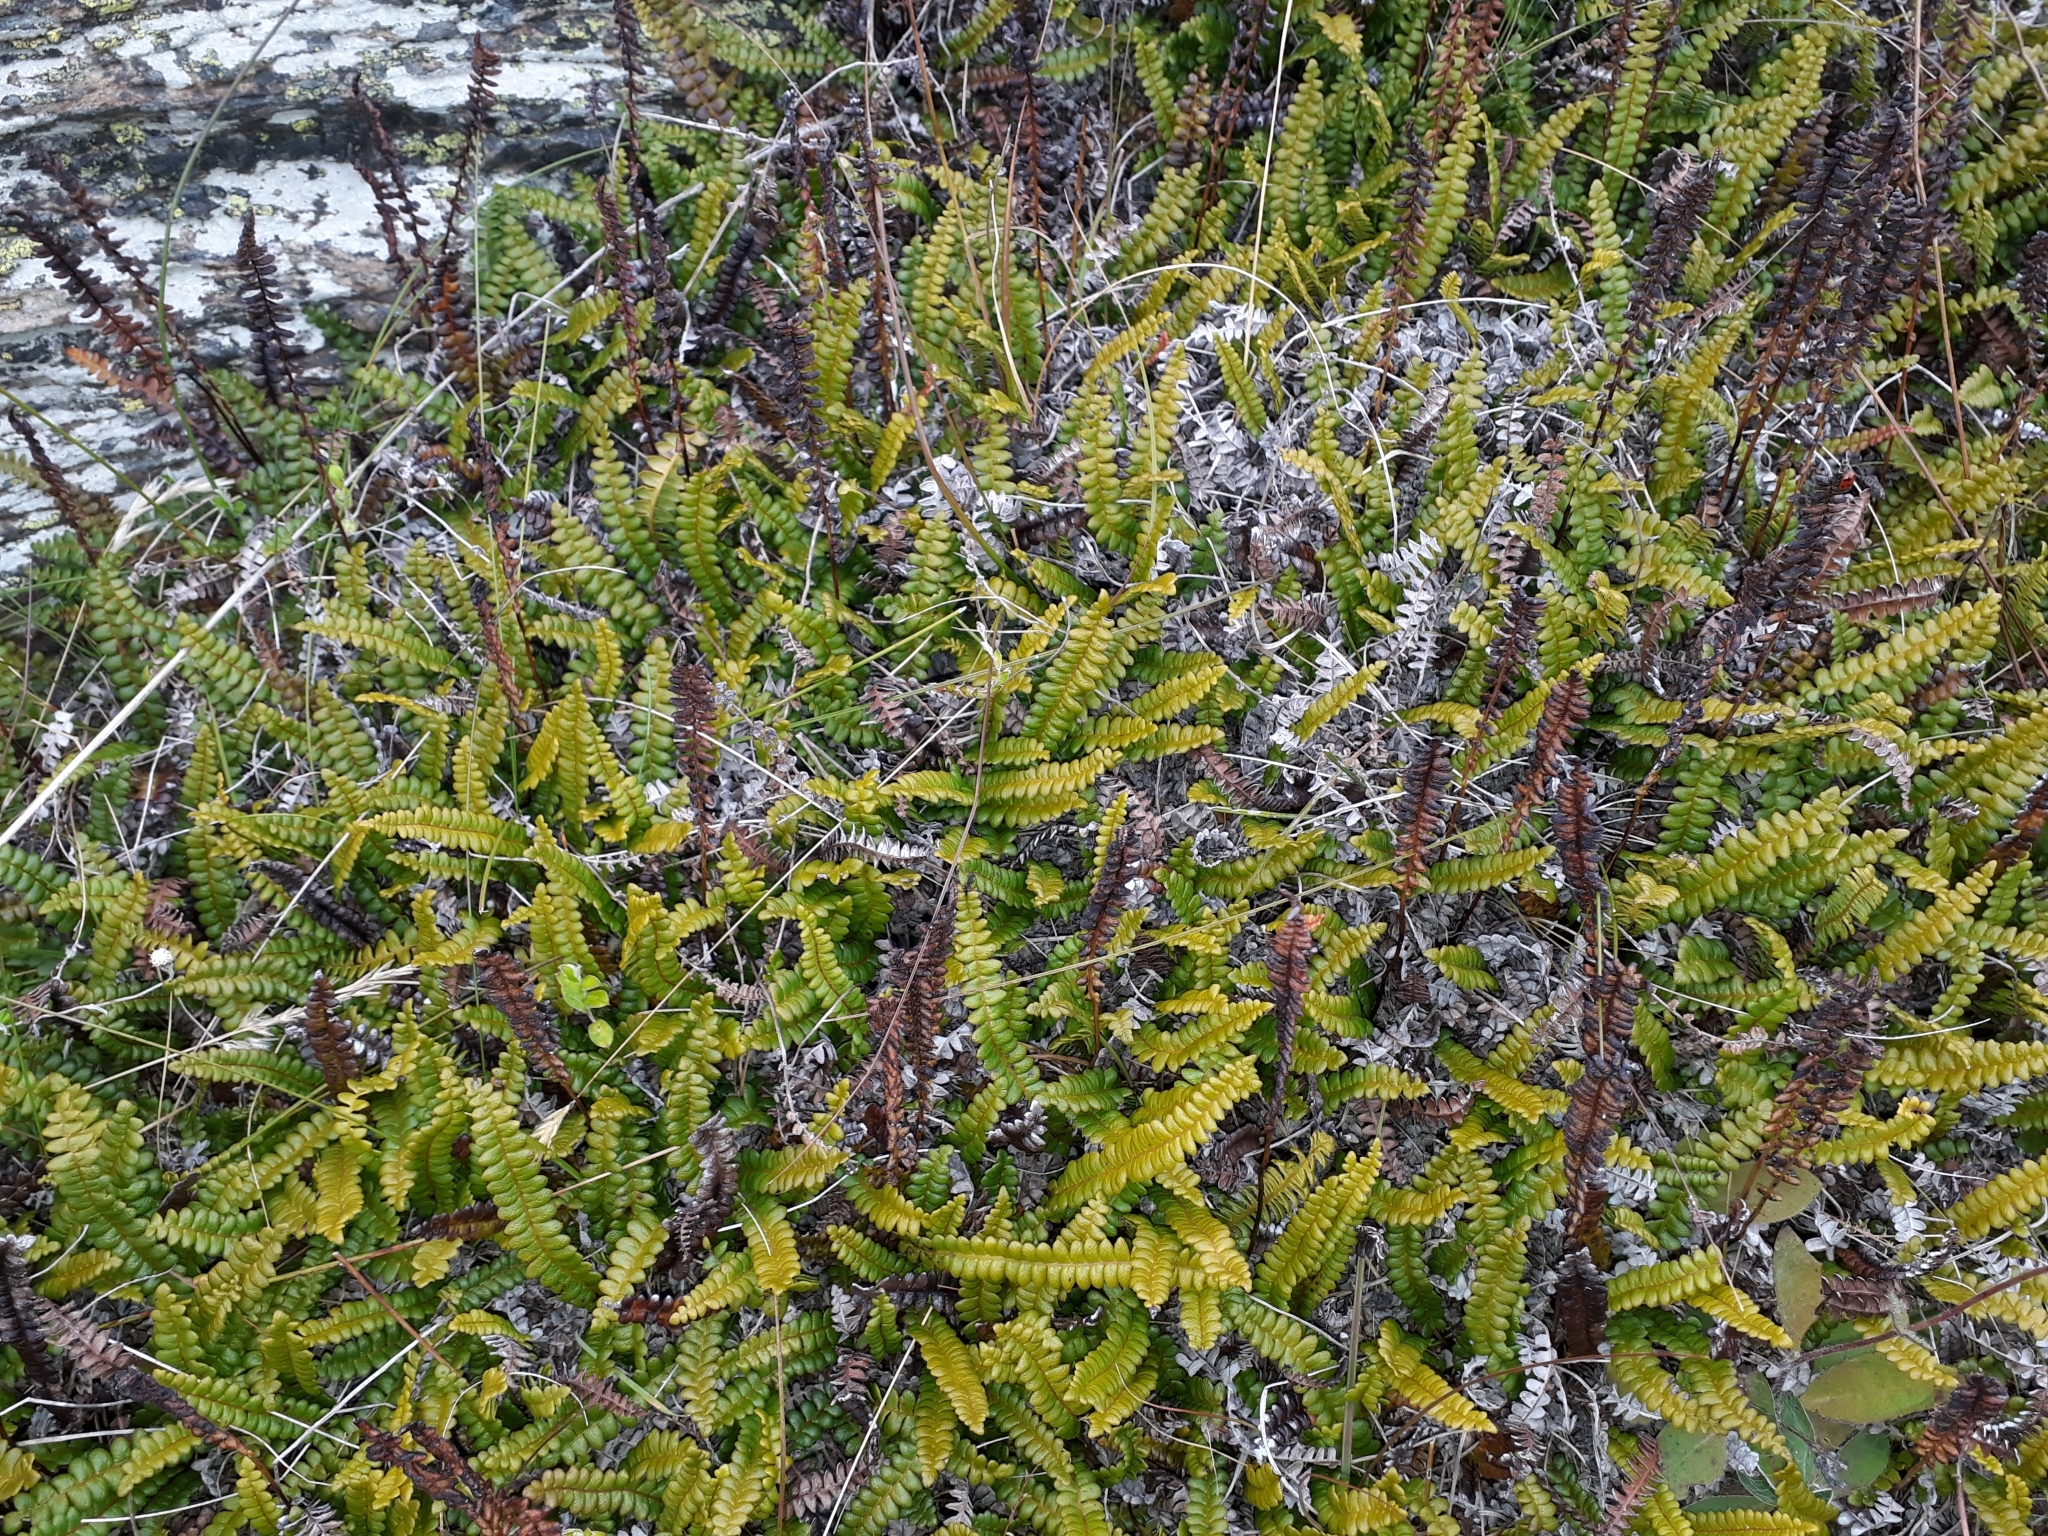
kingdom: Plantae
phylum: Tracheophyta
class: Polypodiopsida
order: Polypodiales
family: Blechnaceae
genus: Austroblechnum
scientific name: Austroblechnum penna-marina
